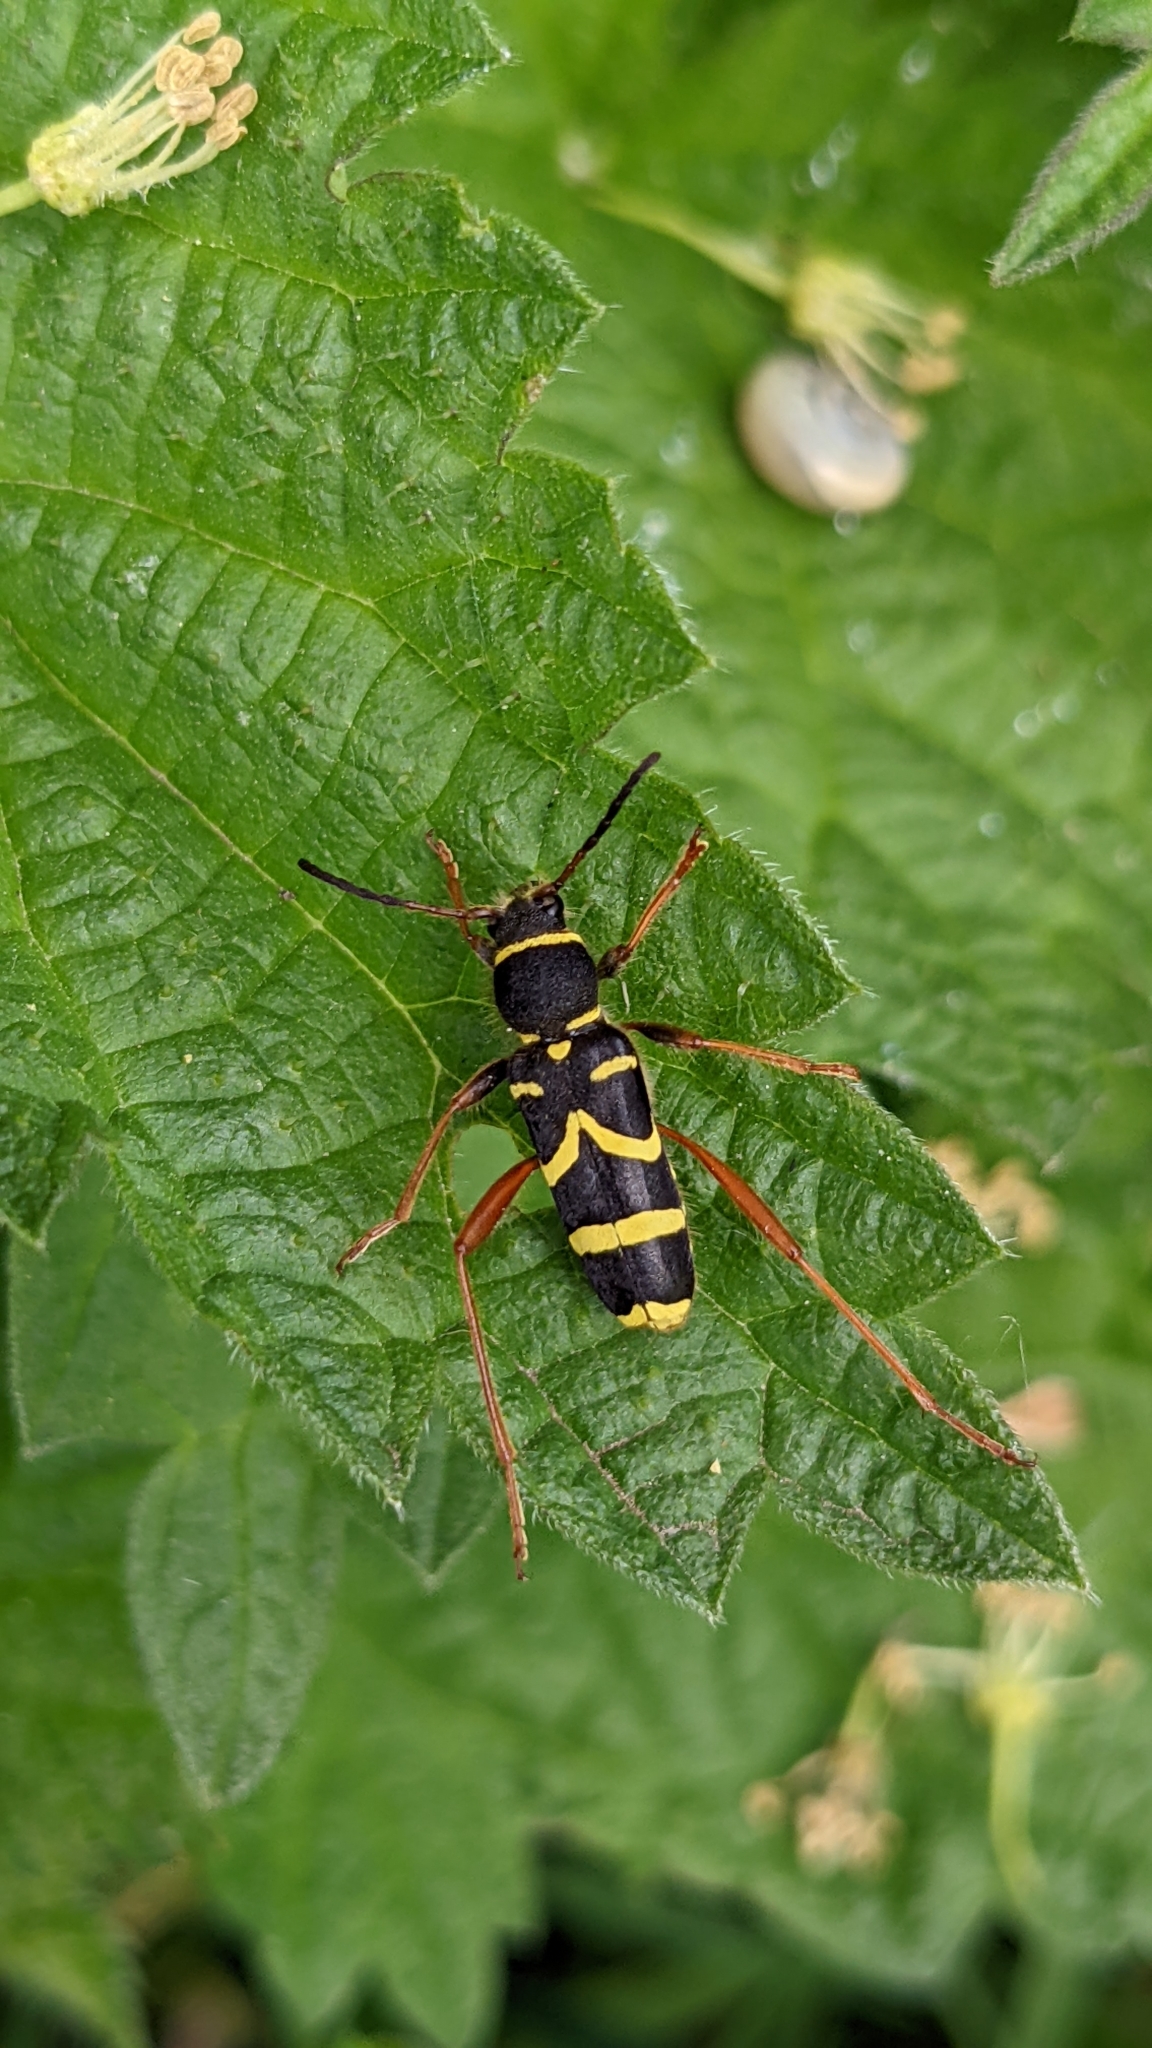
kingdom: Animalia
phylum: Arthropoda
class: Insecta
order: Coleoptera
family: Cerambycidae
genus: Clytus
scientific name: Clytus arietis
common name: Wasp beetle
